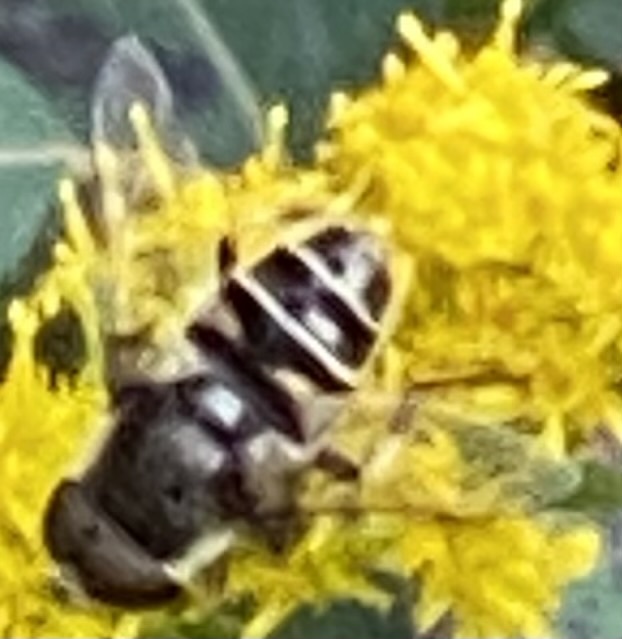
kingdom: Animalia
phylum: Arthropoda
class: Insecta
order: Diptera
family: Syrphidae
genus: Eristalis
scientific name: Eristalis dimidiata
